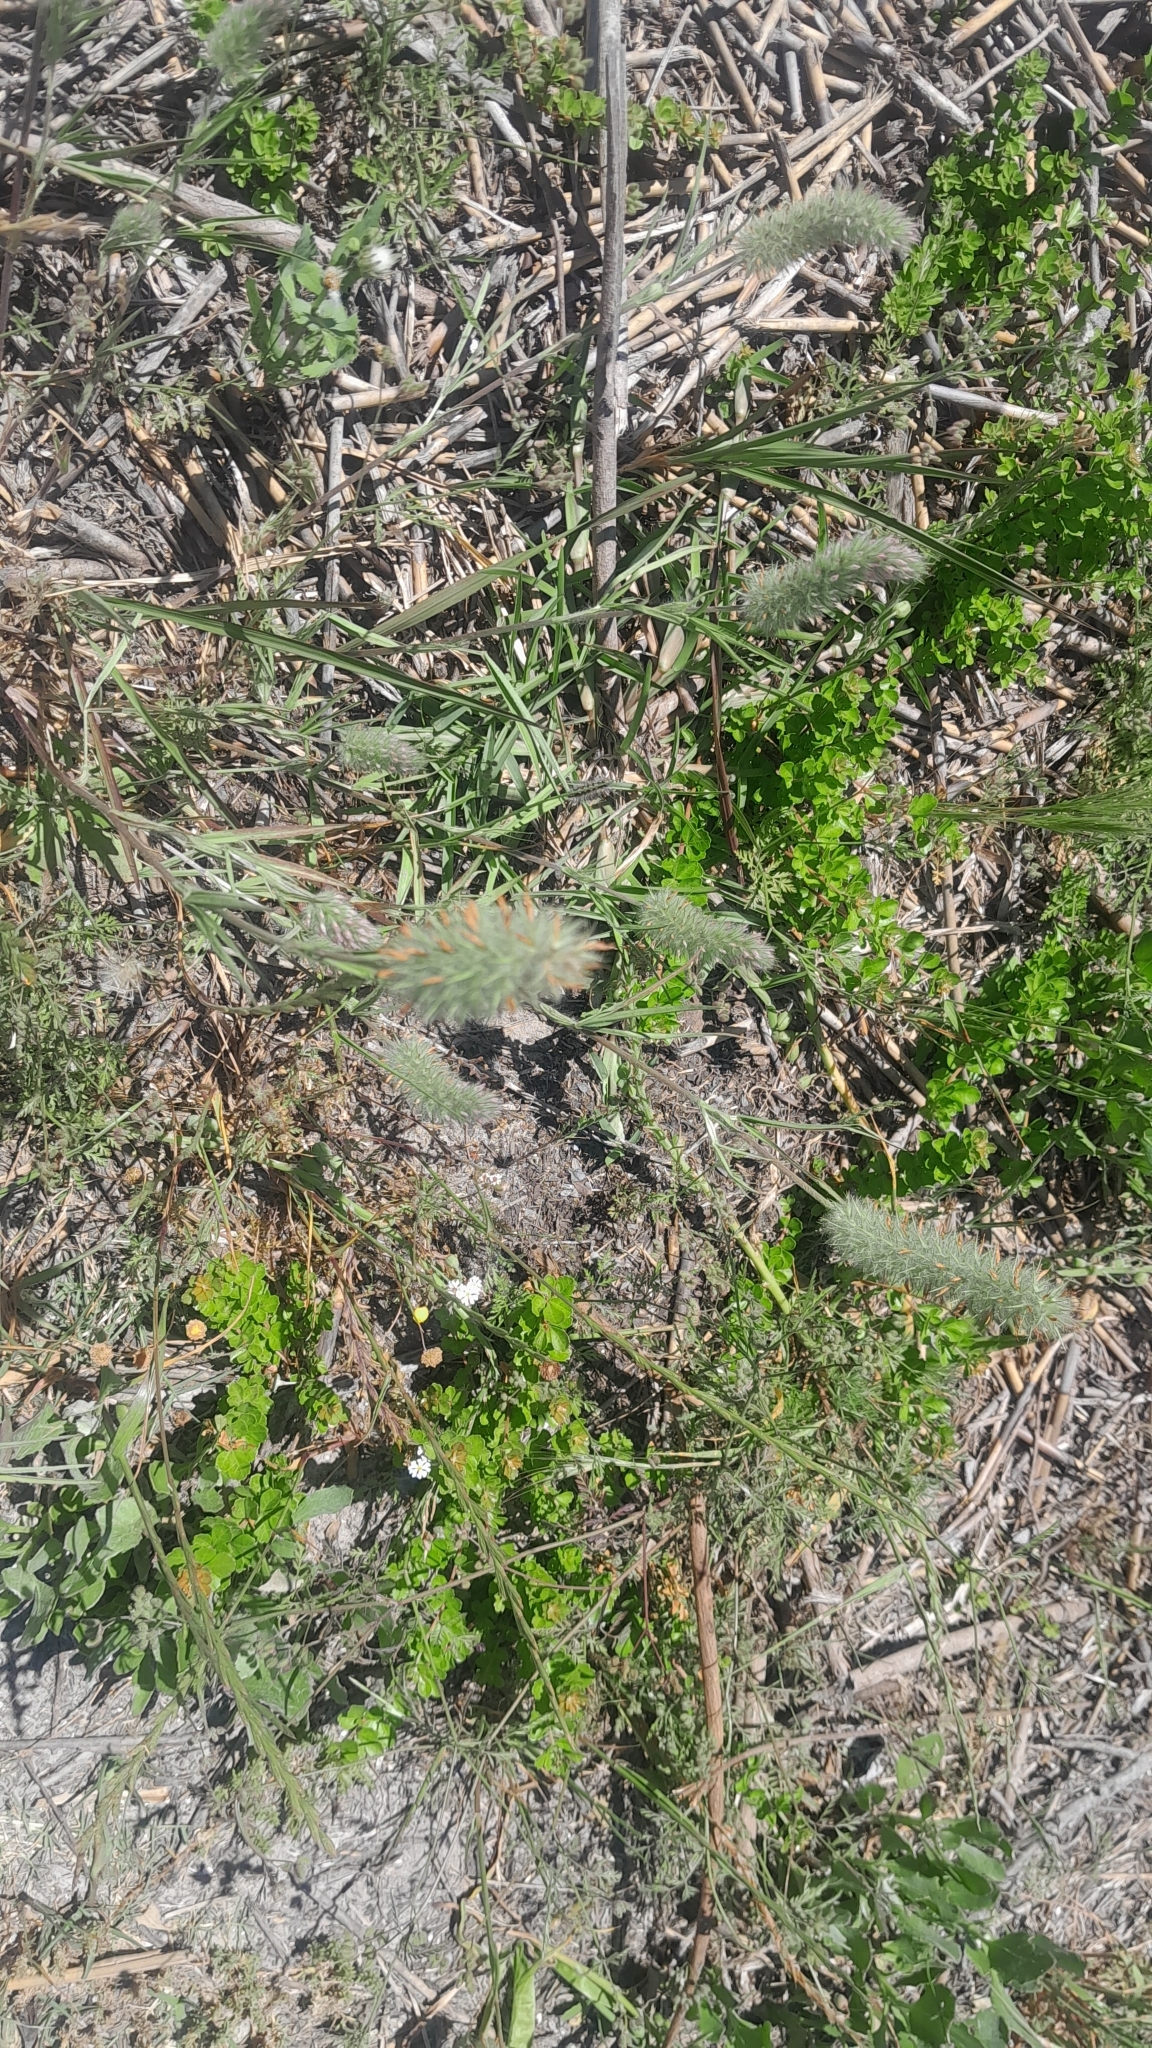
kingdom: Plantae
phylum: Tracheophyta
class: Magnoliopsida
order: Fabales
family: Fabaceae
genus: Trifolium
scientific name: Trifolium angustifolium
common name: Narrow clover
